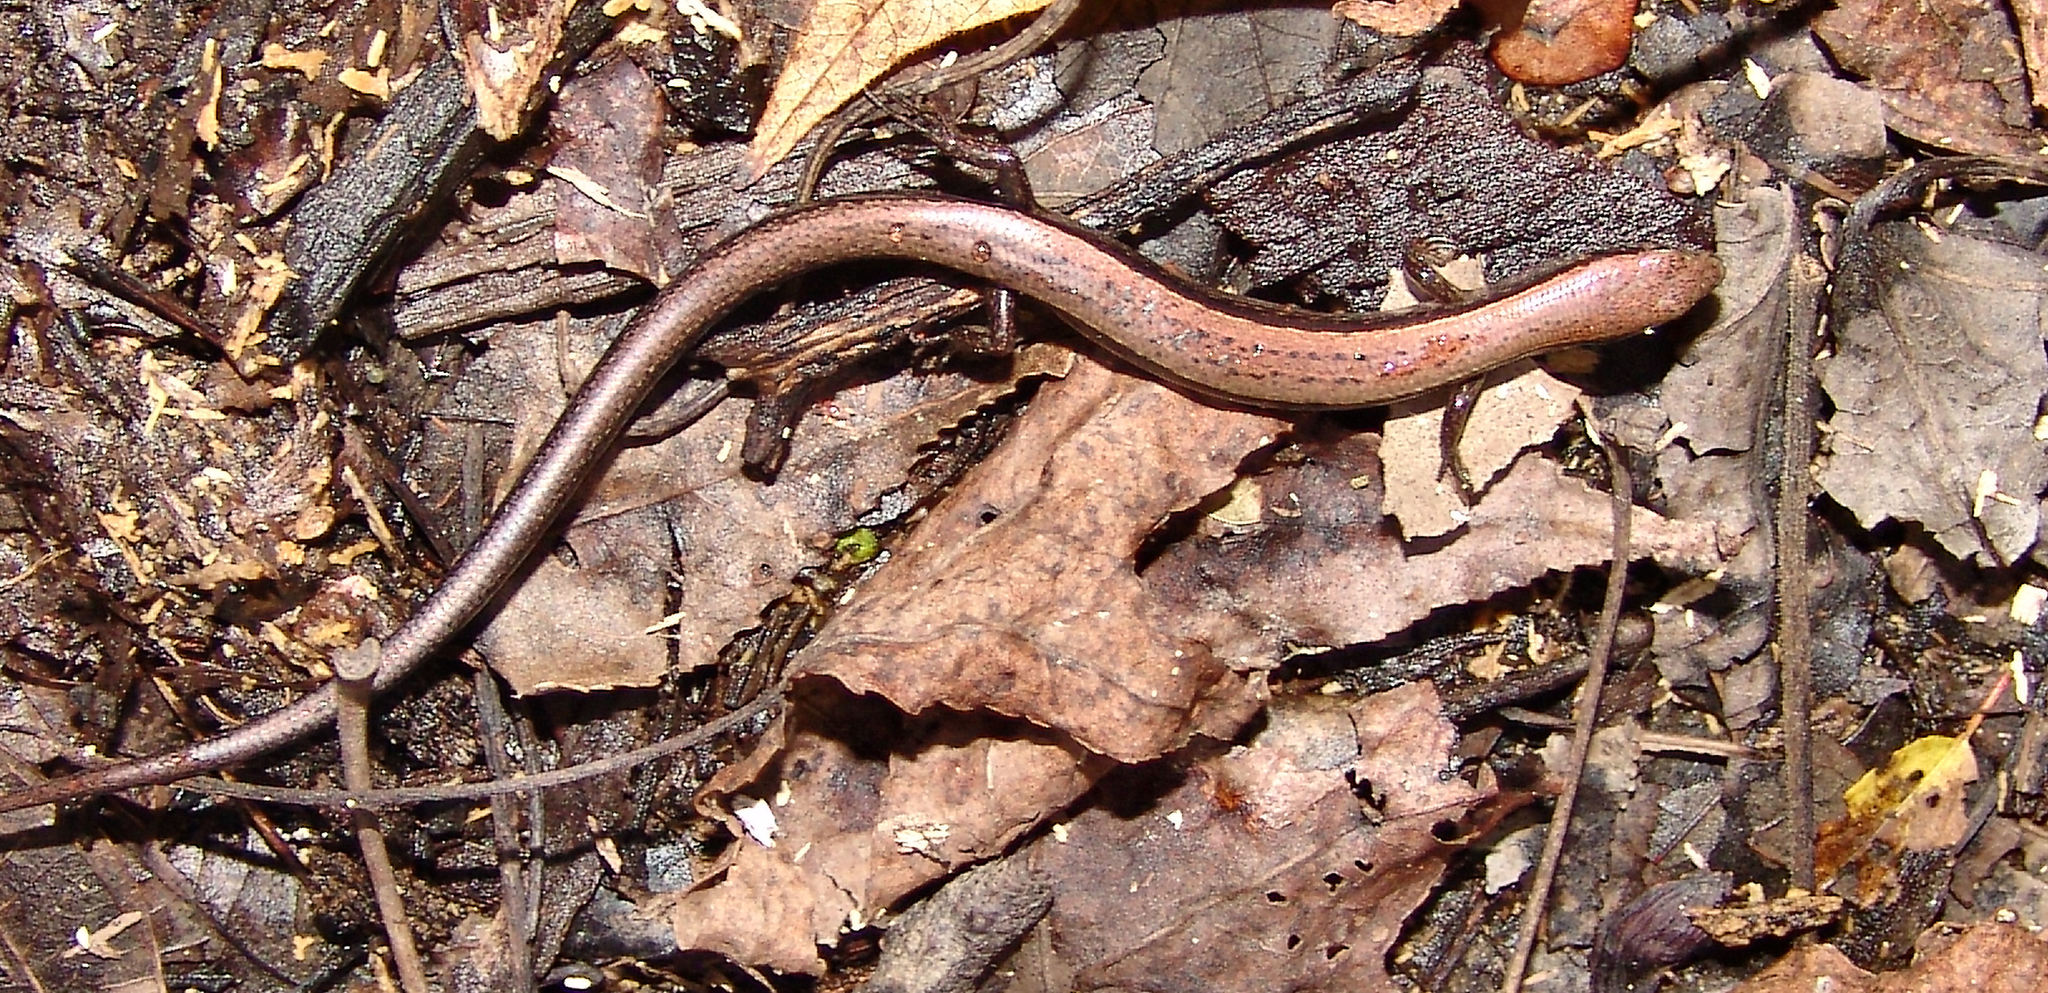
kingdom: Animalia
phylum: Chordata
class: Squamata
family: Scincidae
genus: Scincella
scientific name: Scincella lateralis
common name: Ground skink
